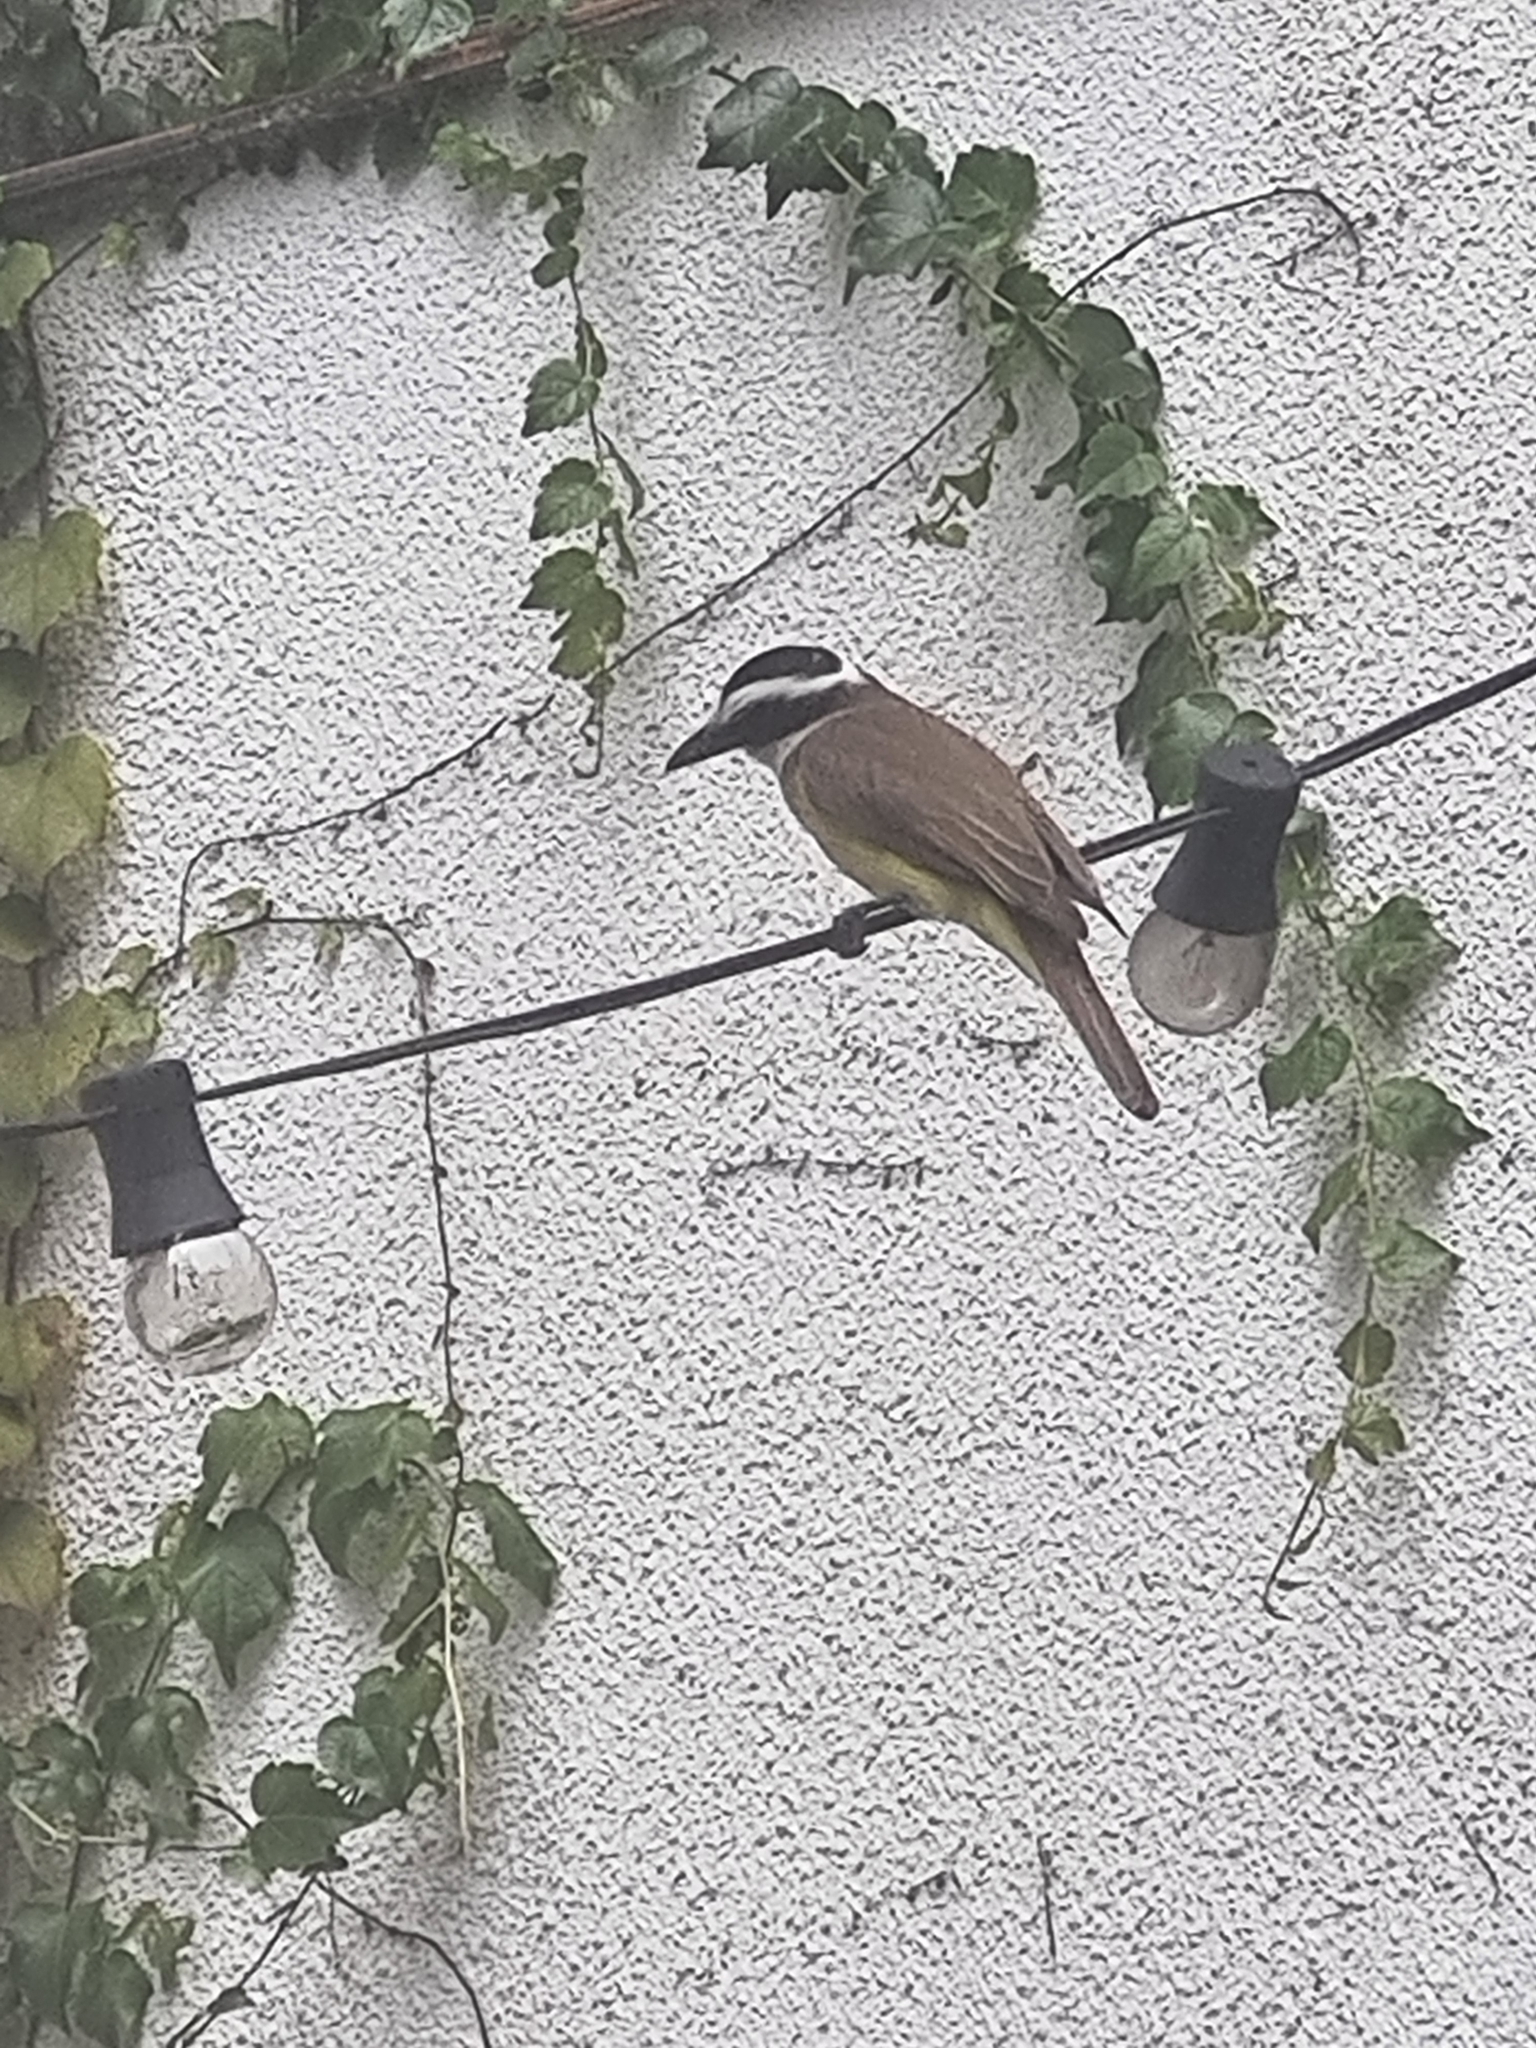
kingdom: Animalia
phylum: Chordata
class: Aves
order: Passeriformes
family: Tyrannidae
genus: Pitangus
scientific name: Pitangus sulphuratus
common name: Great kiskadee
